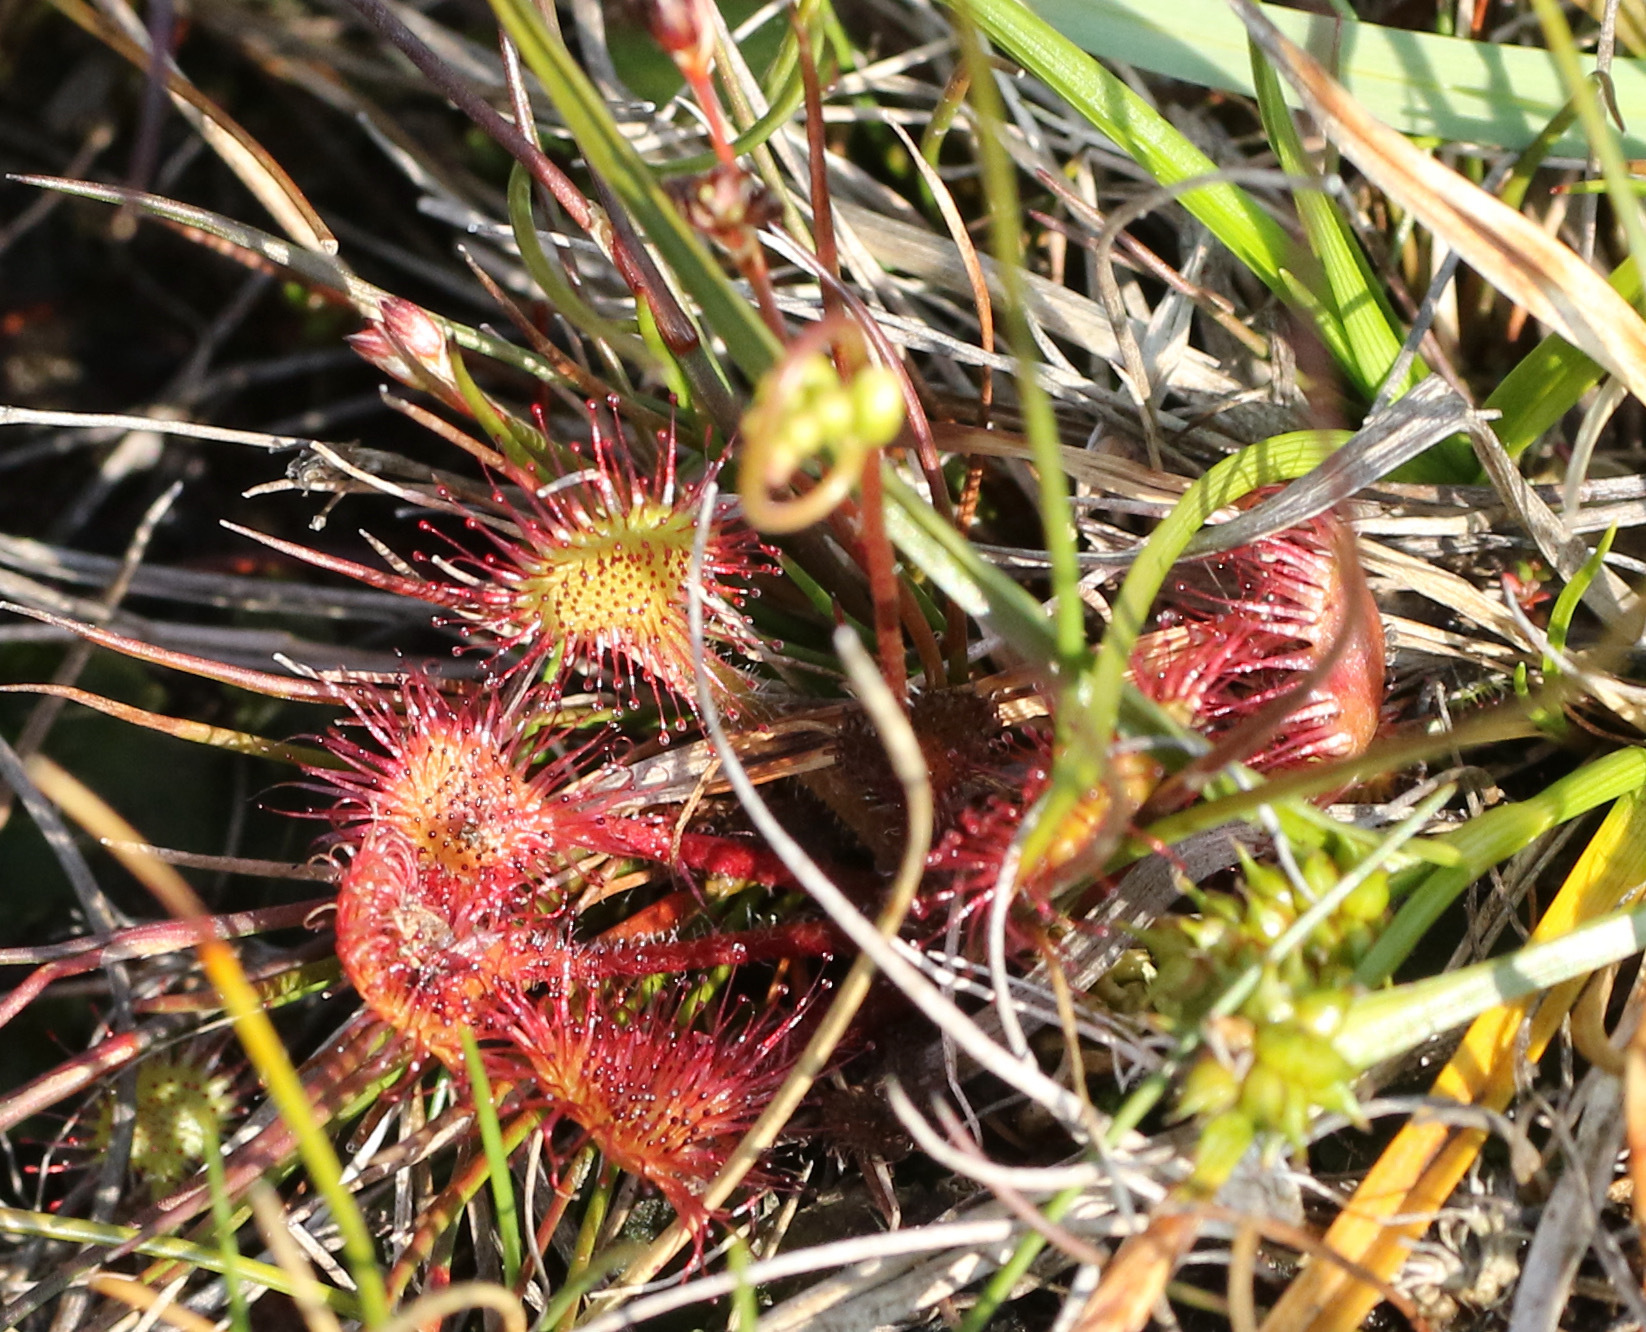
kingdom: Plantae
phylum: Tracheophyta
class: Magnoliopsida
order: Caryophyllales
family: Droseraceae
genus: Drosera
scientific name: Drosera rotundifolia
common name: Round-leaved sundew
